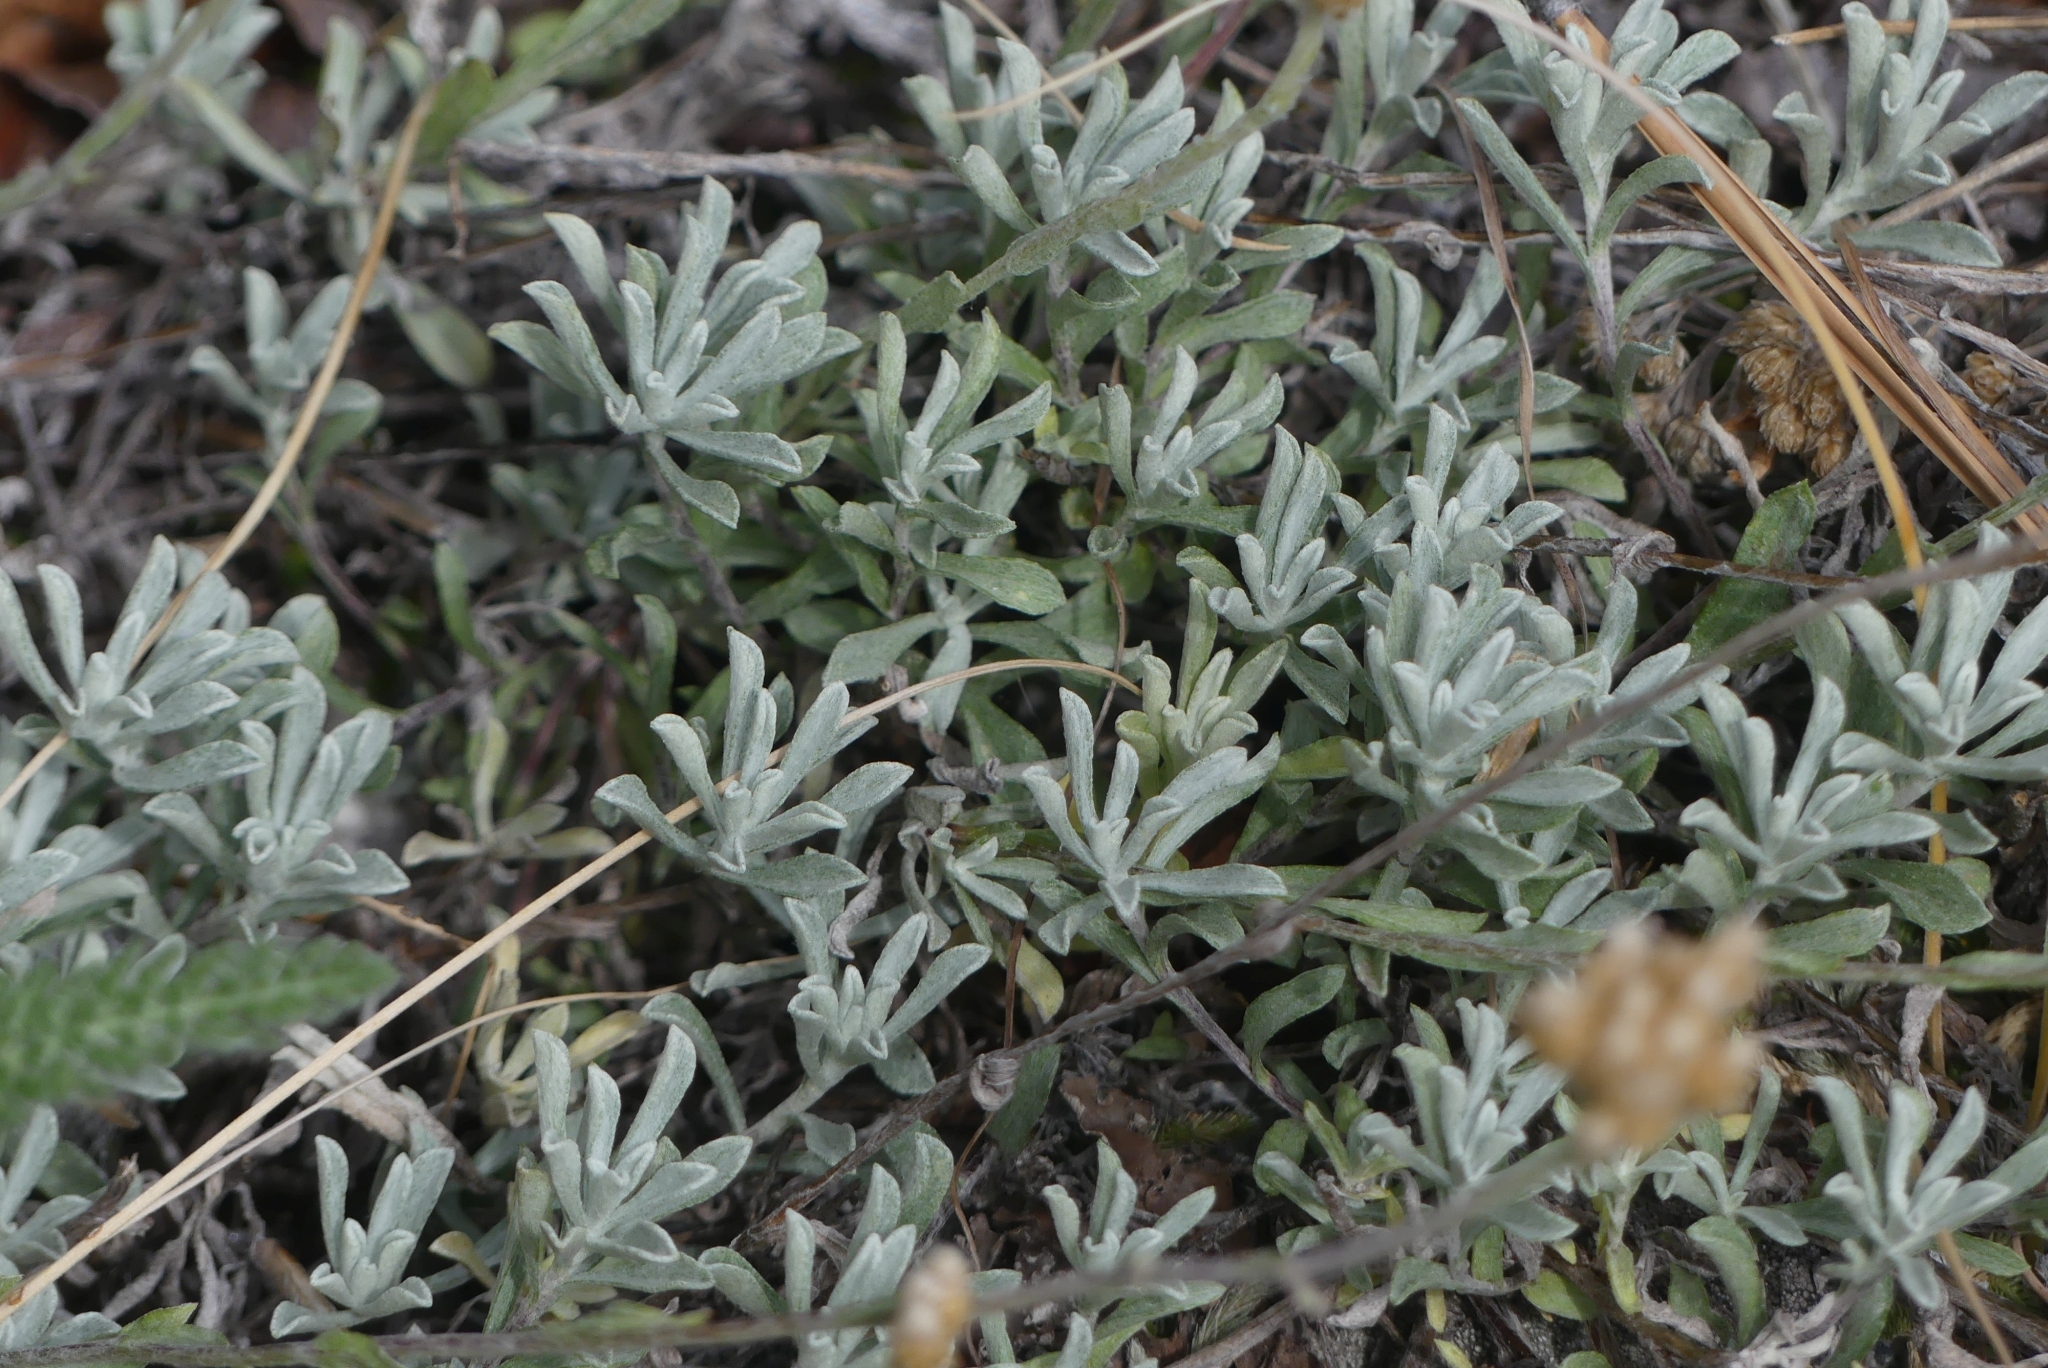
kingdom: Plantae
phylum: Tracheophyta
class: Magnoliopsida
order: Asterales
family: Asteraceae
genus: Antennaria
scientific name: Antennaria umbrinella
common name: Brown pussytoes
